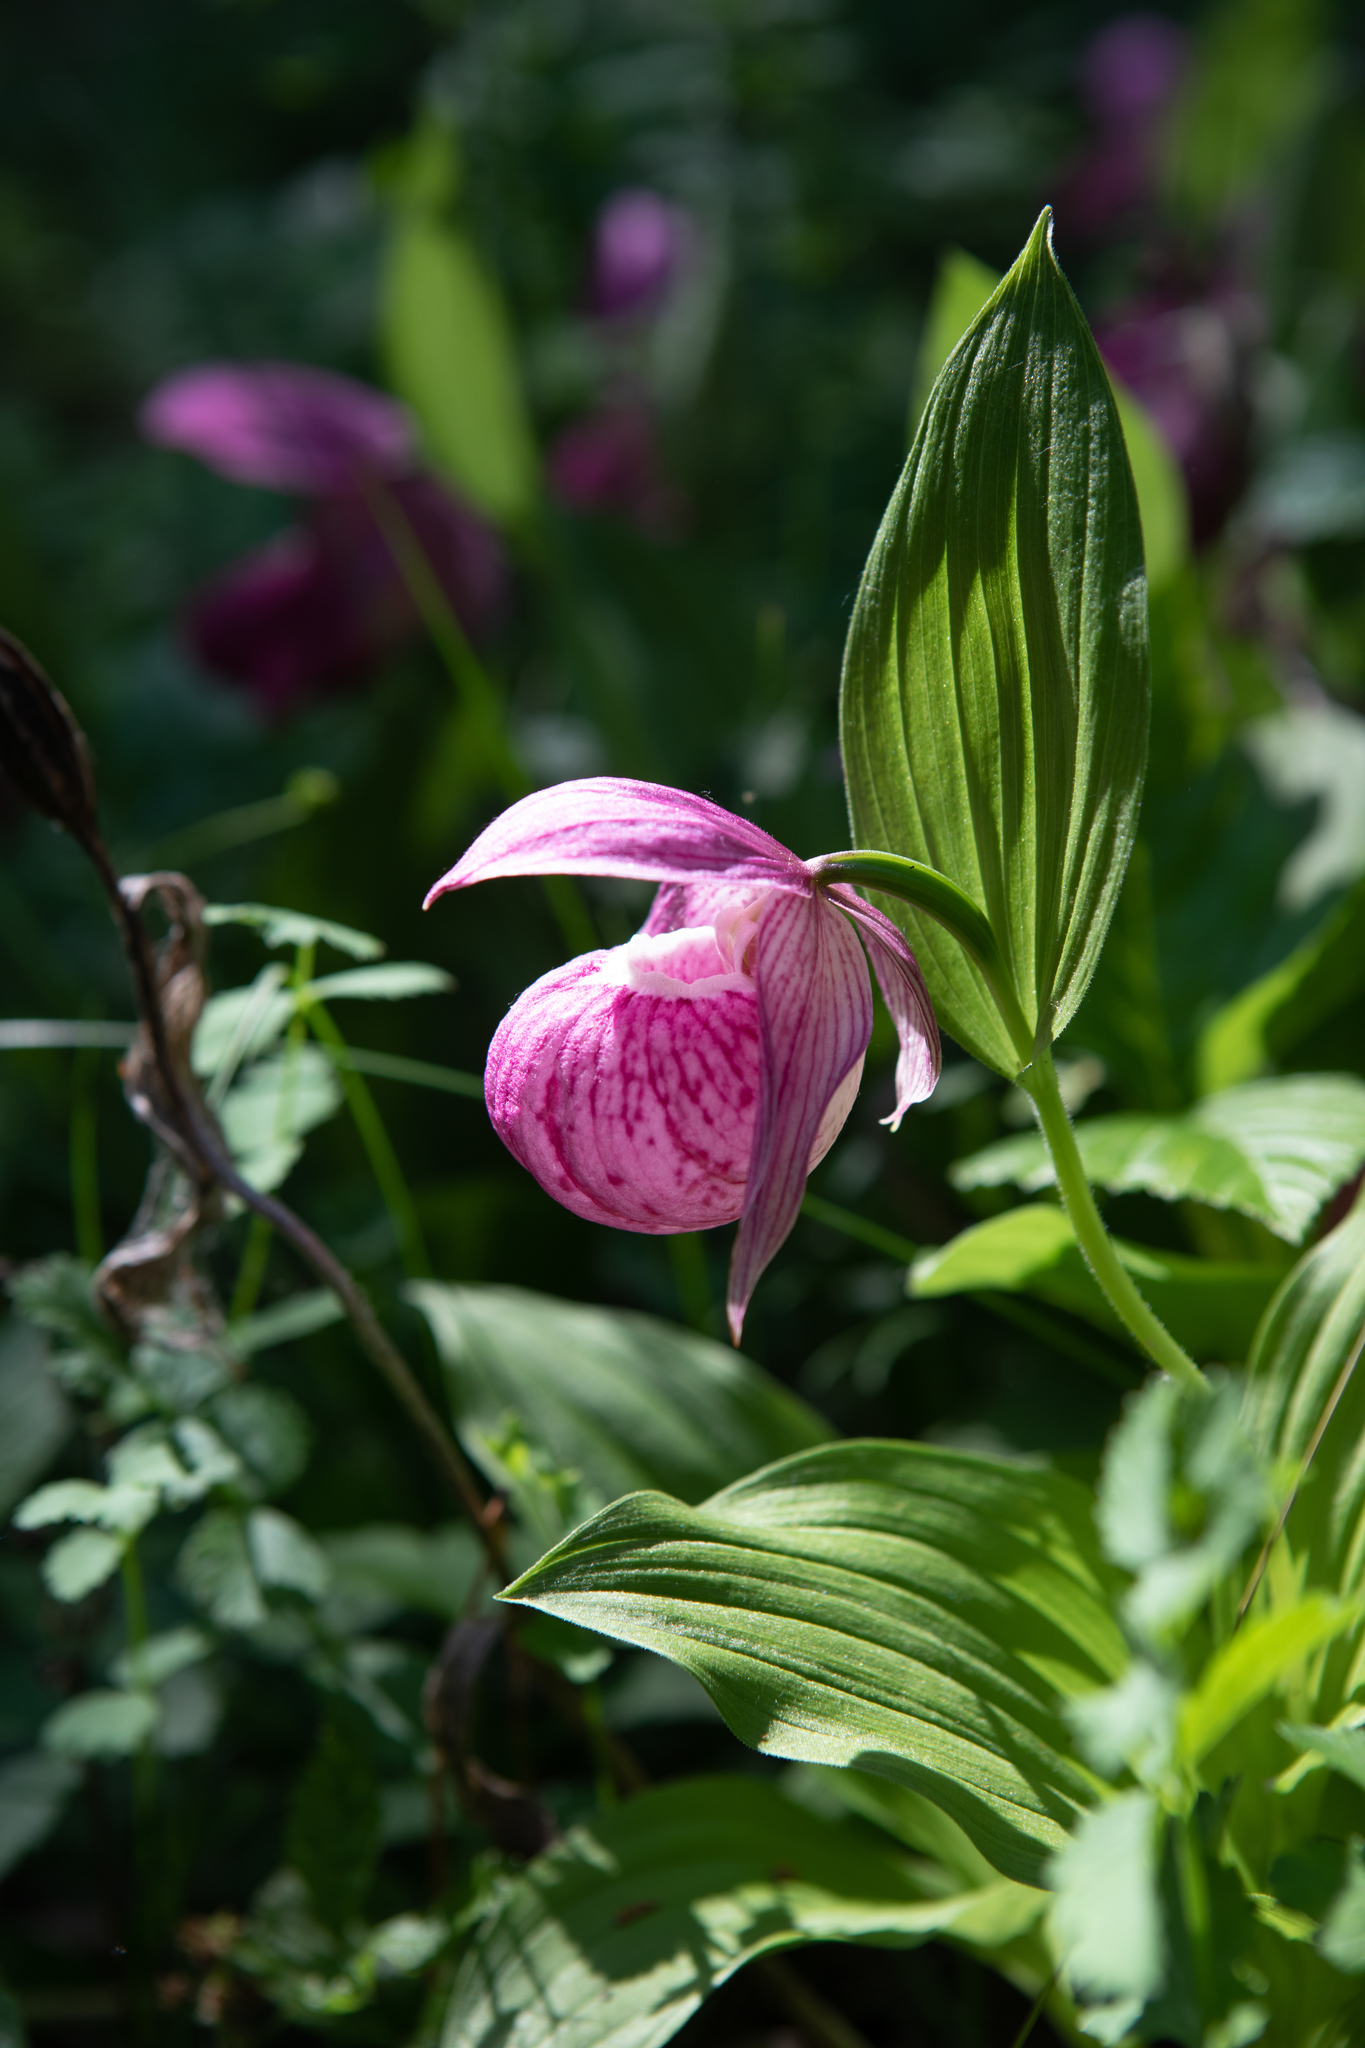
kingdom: Plantae
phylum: Tracheophyta
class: Liliopsida
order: Asparagales
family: Orchidaceae
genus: Cypripedium
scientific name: Cypripedium macranthos
